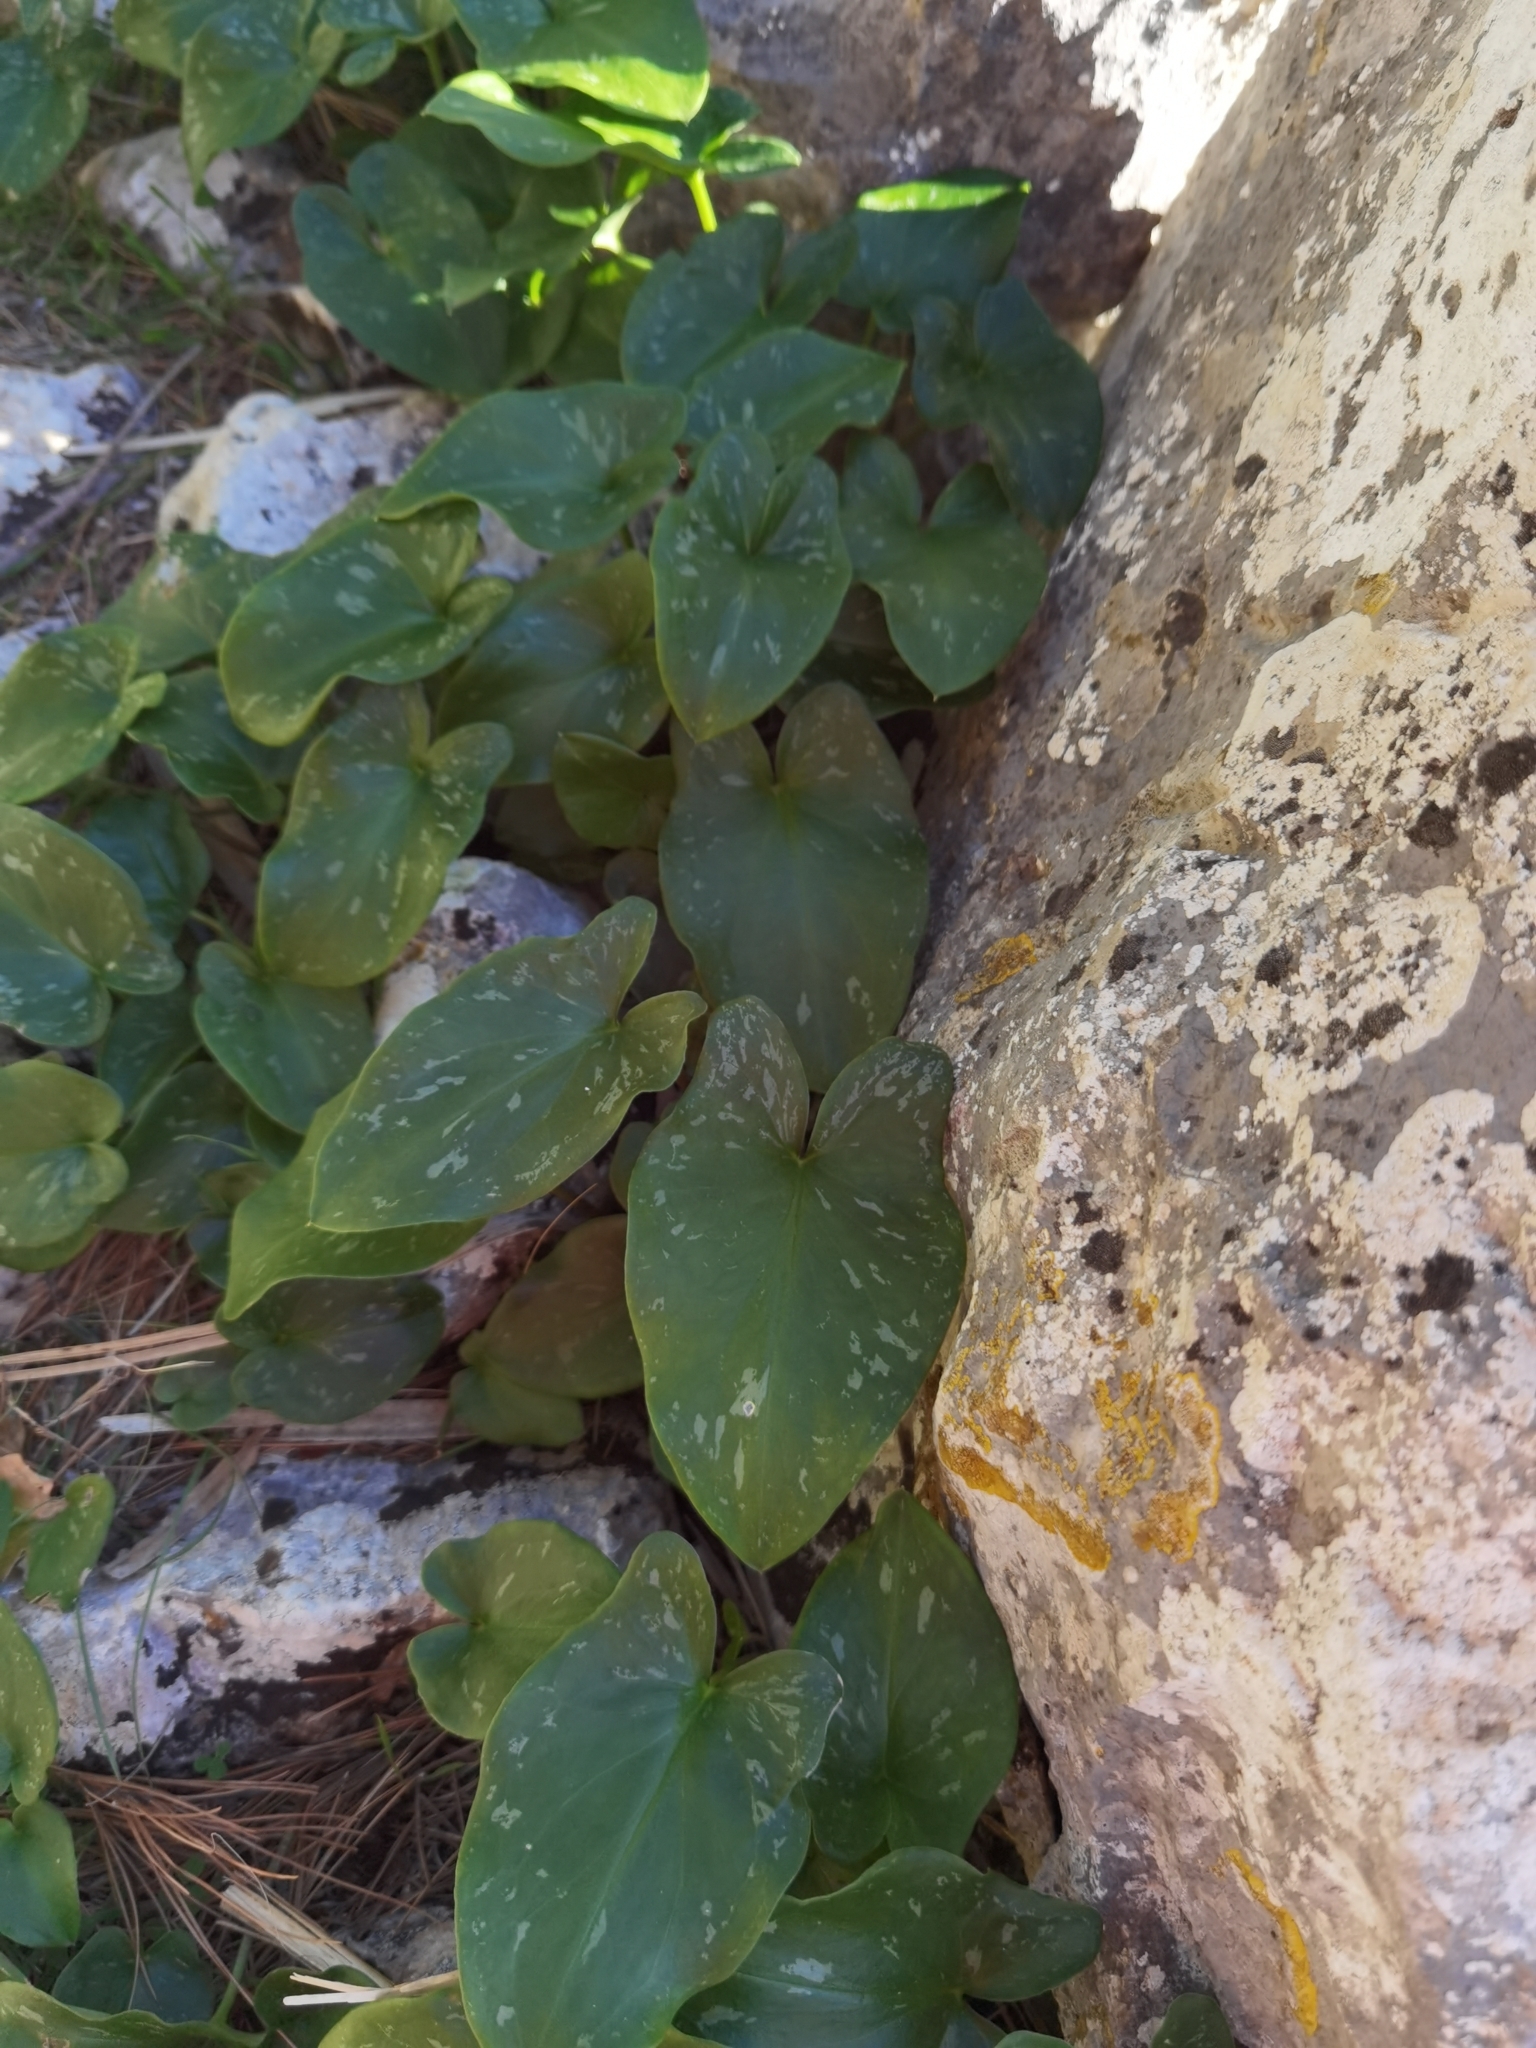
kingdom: Plantae
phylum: Tracheophyta
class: Liliopsida
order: Alismatales
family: Araceae
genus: Arisarum
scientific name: Arisarum vulgare
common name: Common arisarum
